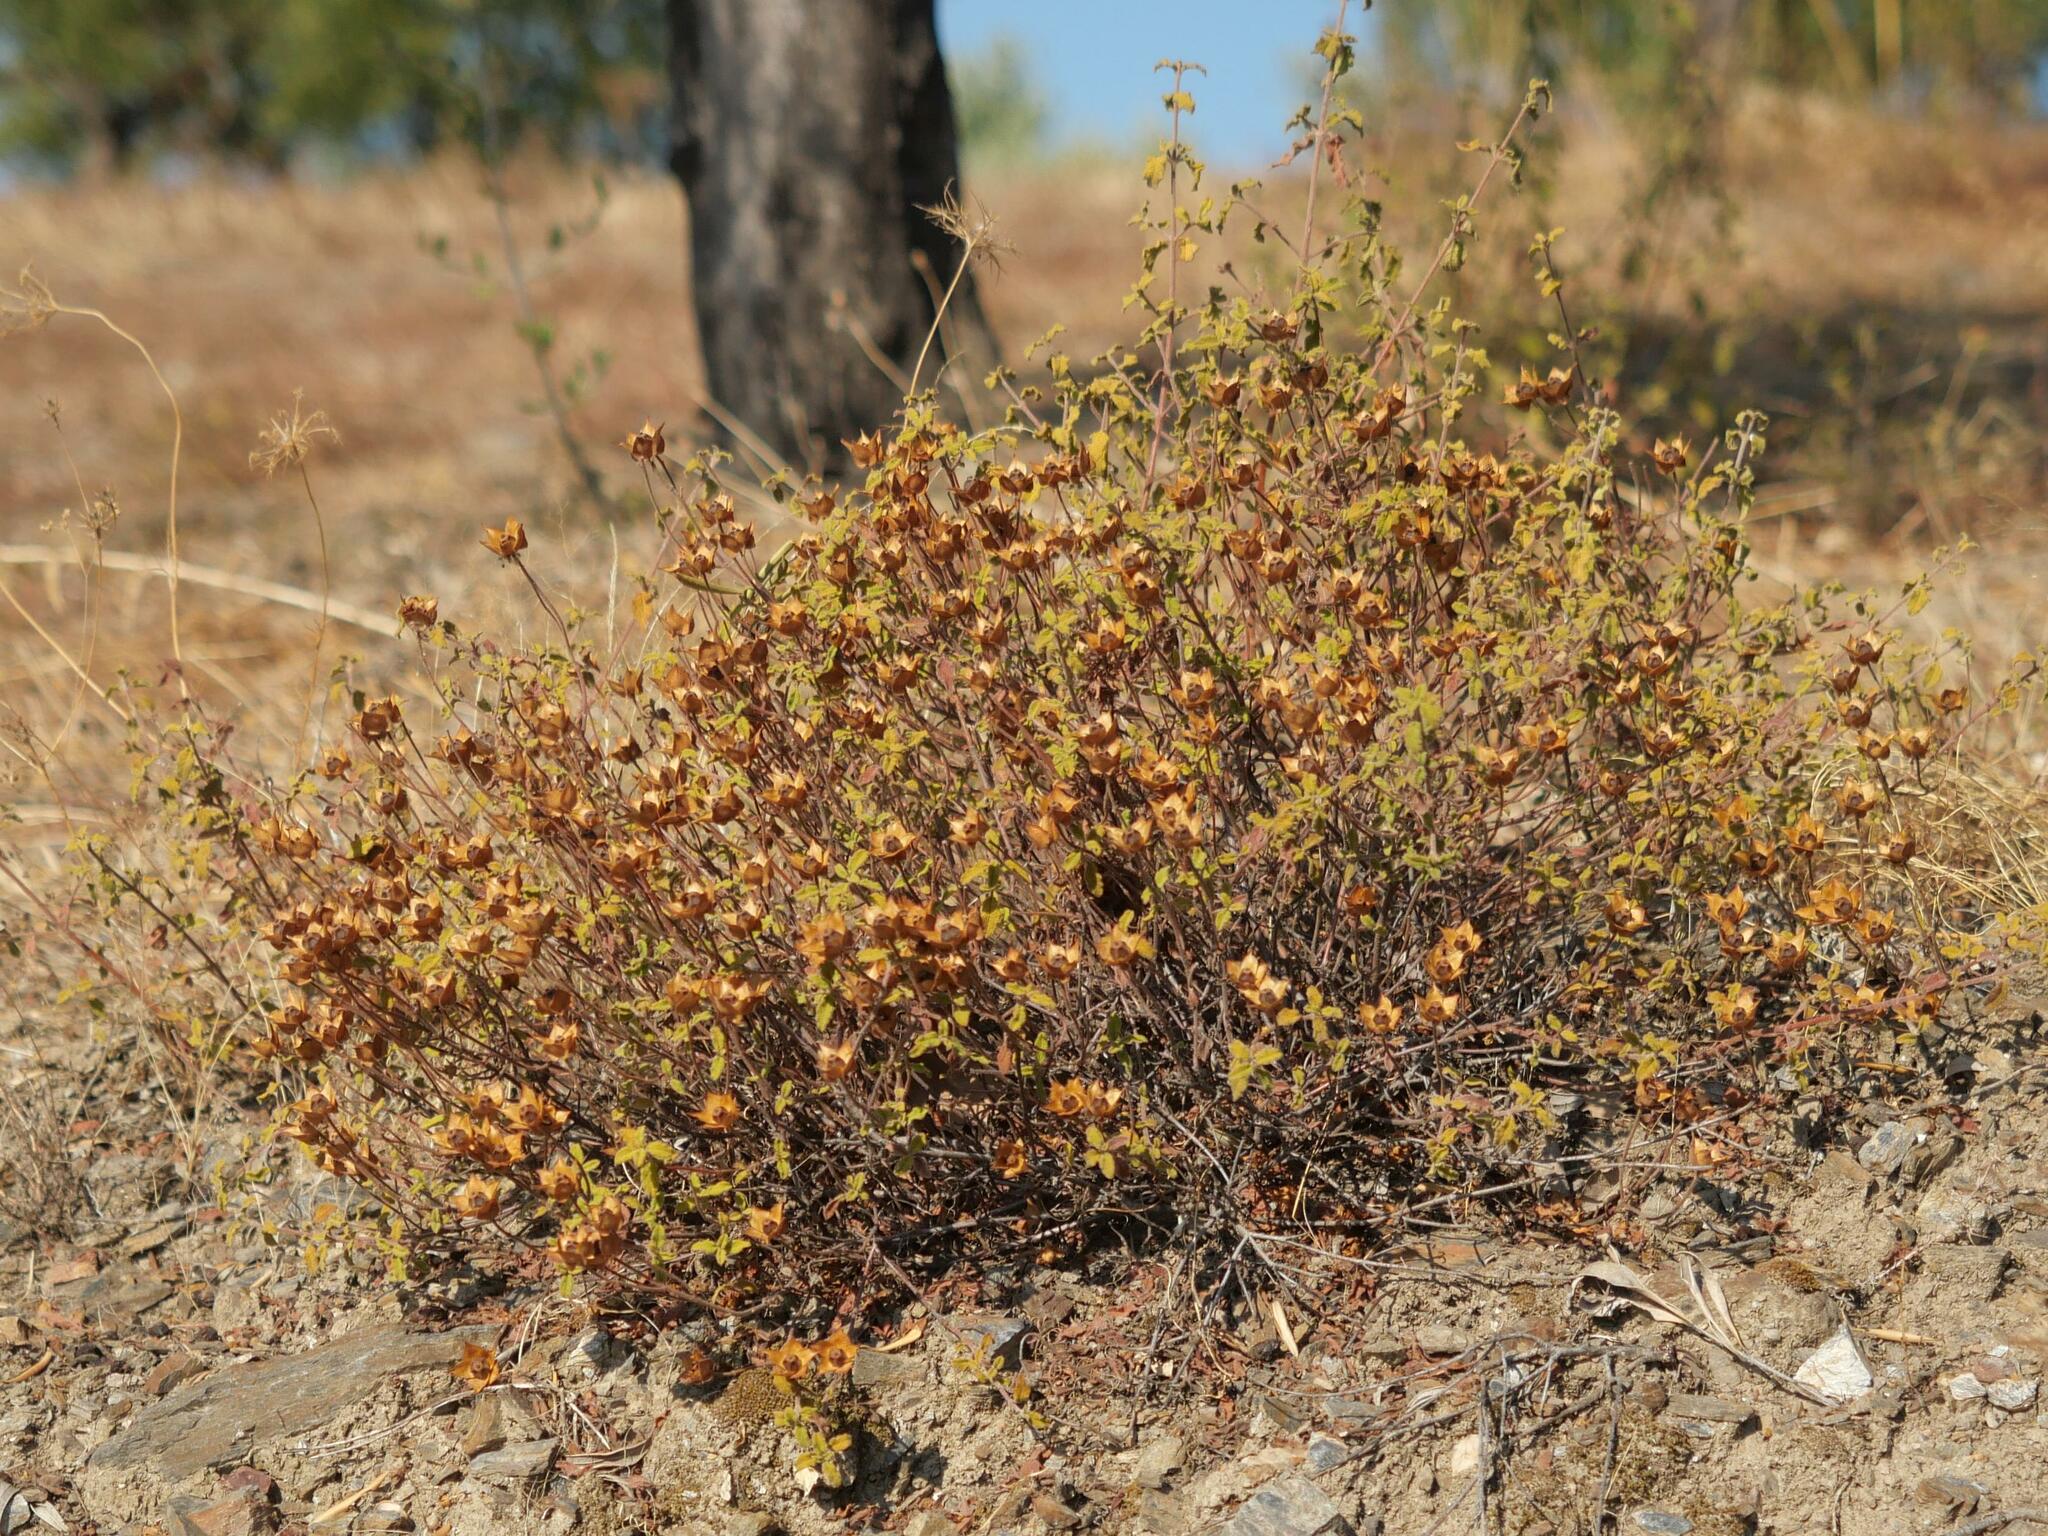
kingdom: Plantae
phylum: Tracheophyta
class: Magnoliopsida
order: Malvales
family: Cistaceae
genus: Cistus
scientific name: Cistus salviifolius
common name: Salvia cistus
